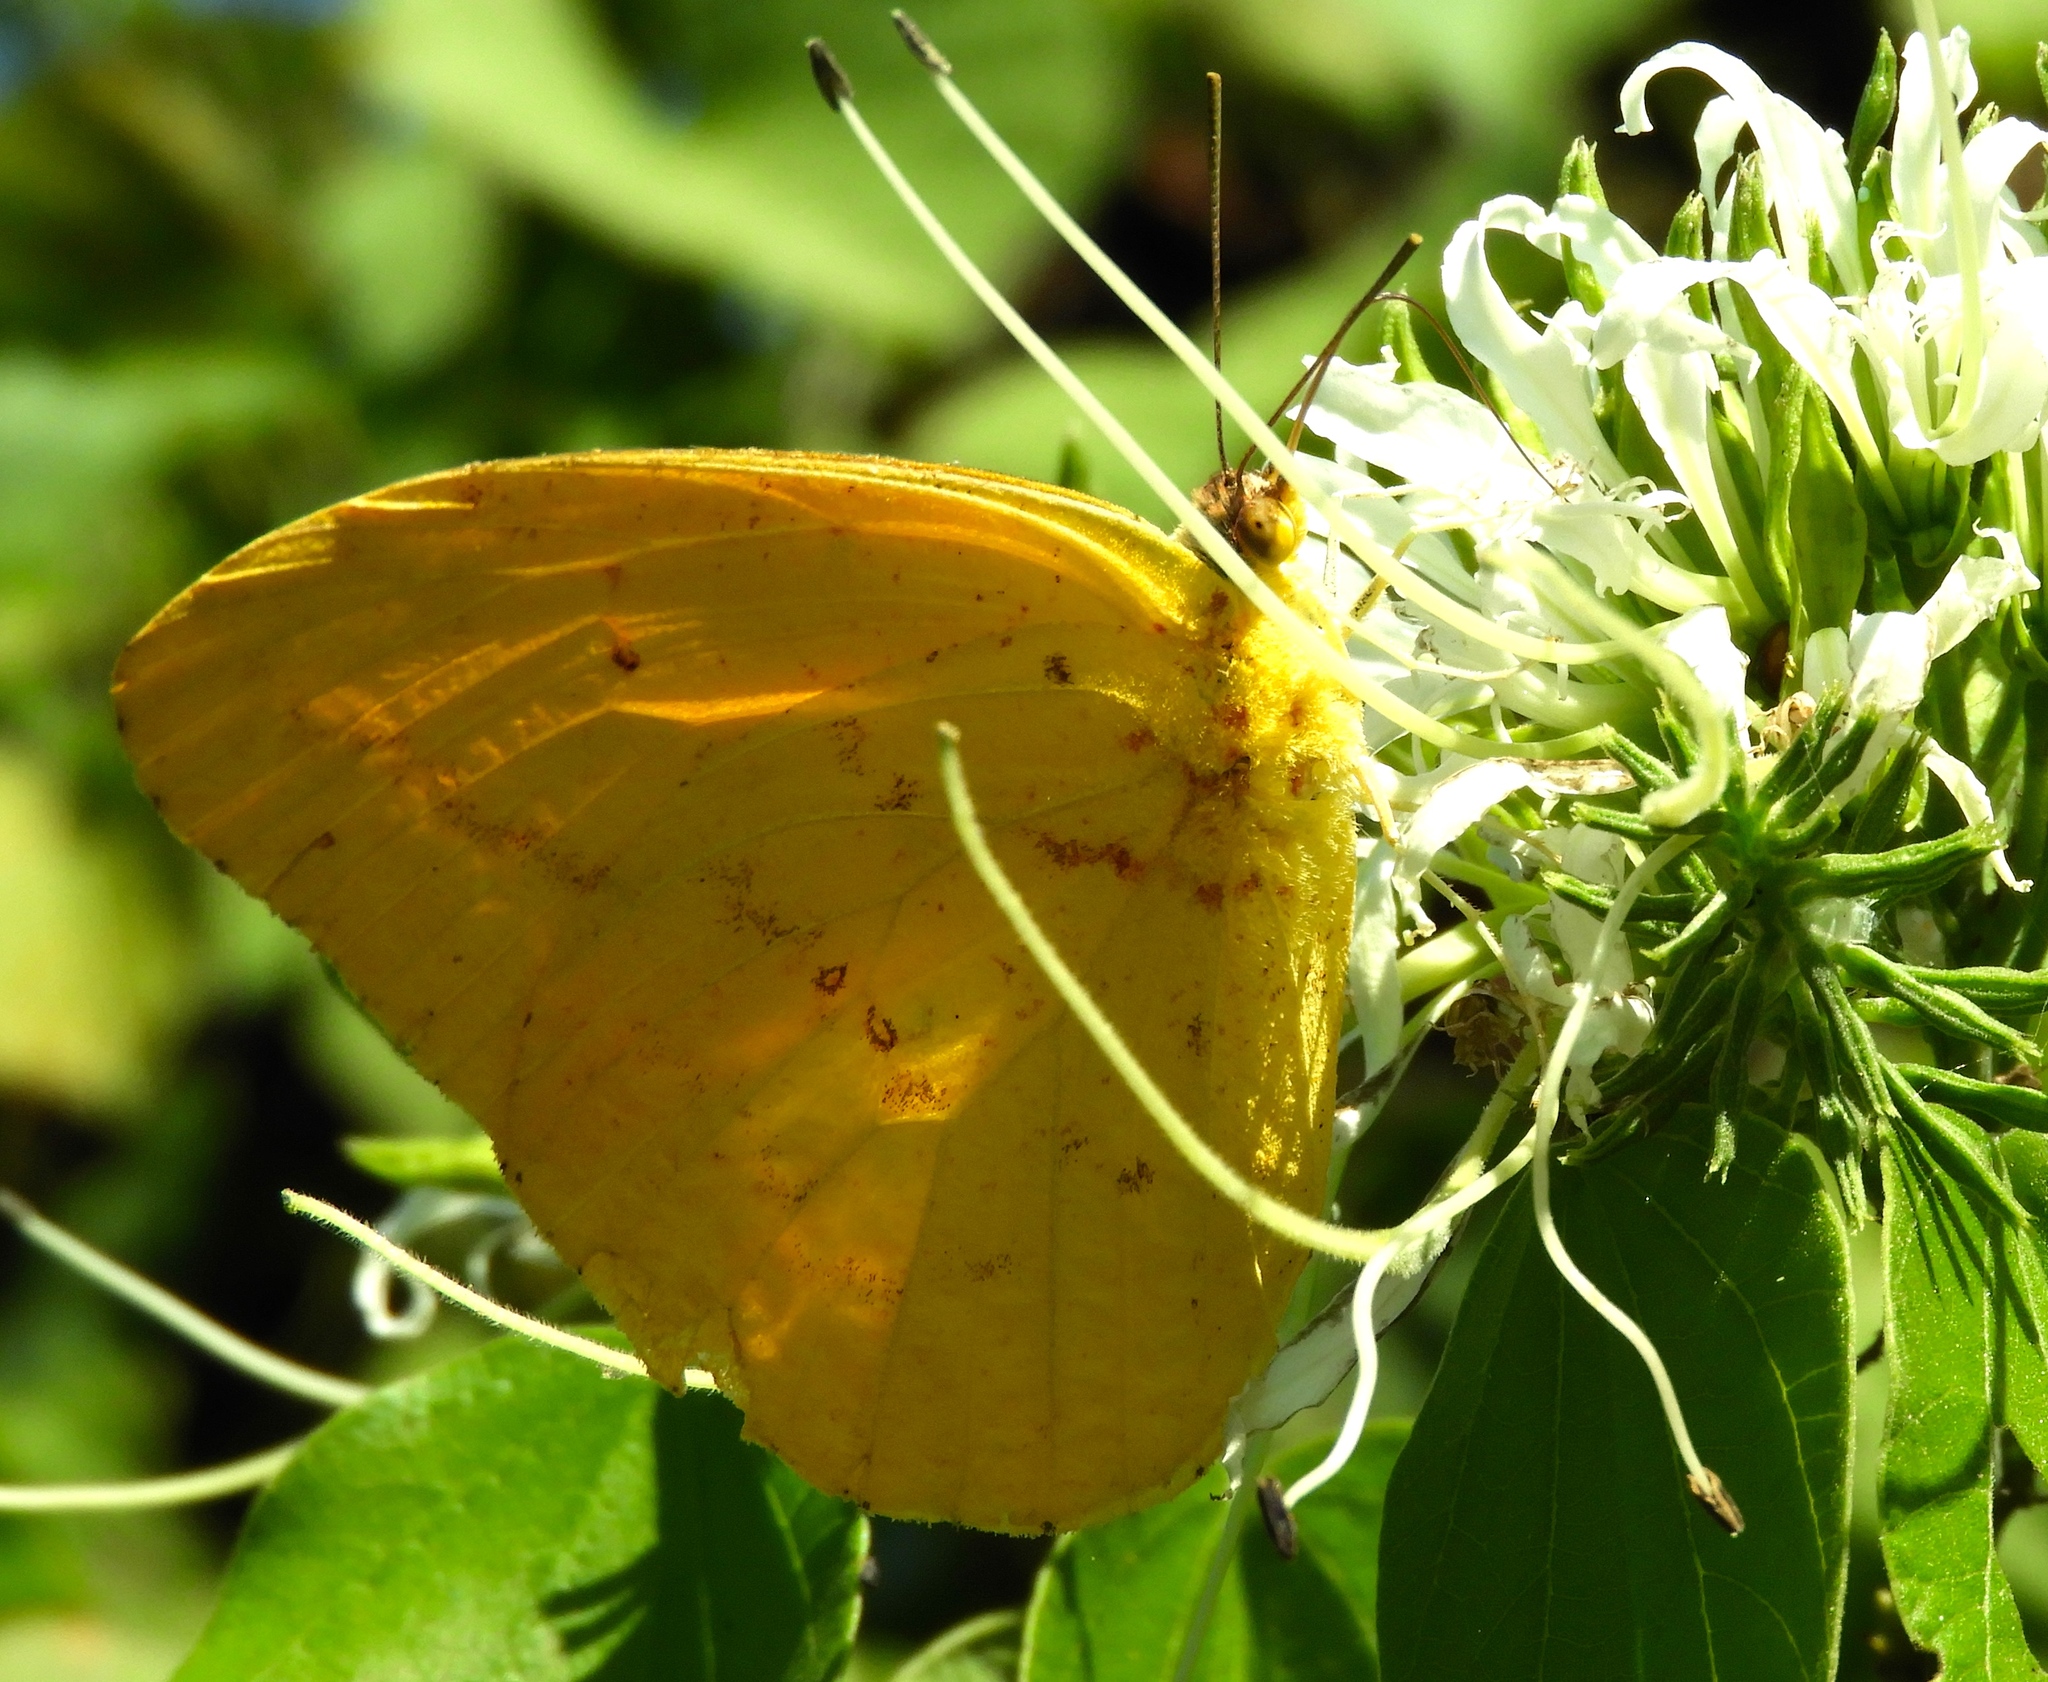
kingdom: Animalia
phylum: Arthropoda
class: Insecta
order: Lepidoptera
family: Pieridae
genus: Phoebis
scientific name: Phoebis agarithe
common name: Large orange sulphur
